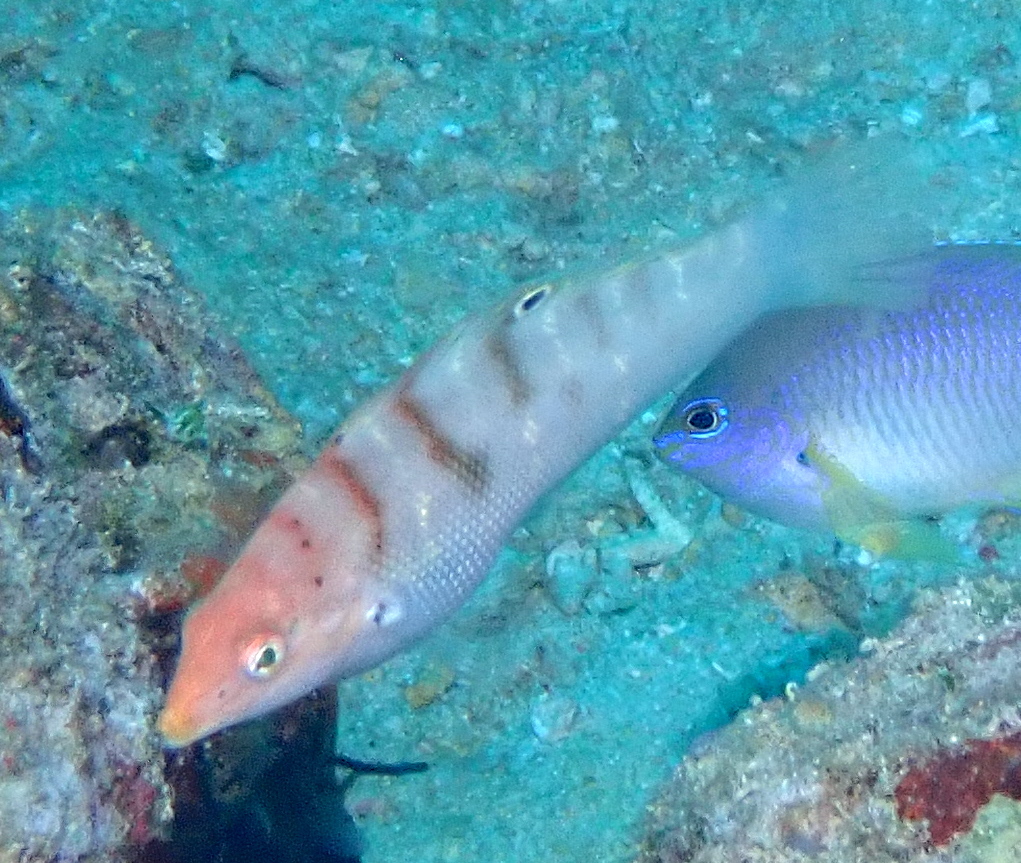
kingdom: Animalia
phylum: Chordata
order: Perciformes
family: Labridae
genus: Coris
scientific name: Coris batuensis
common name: Batu coris
